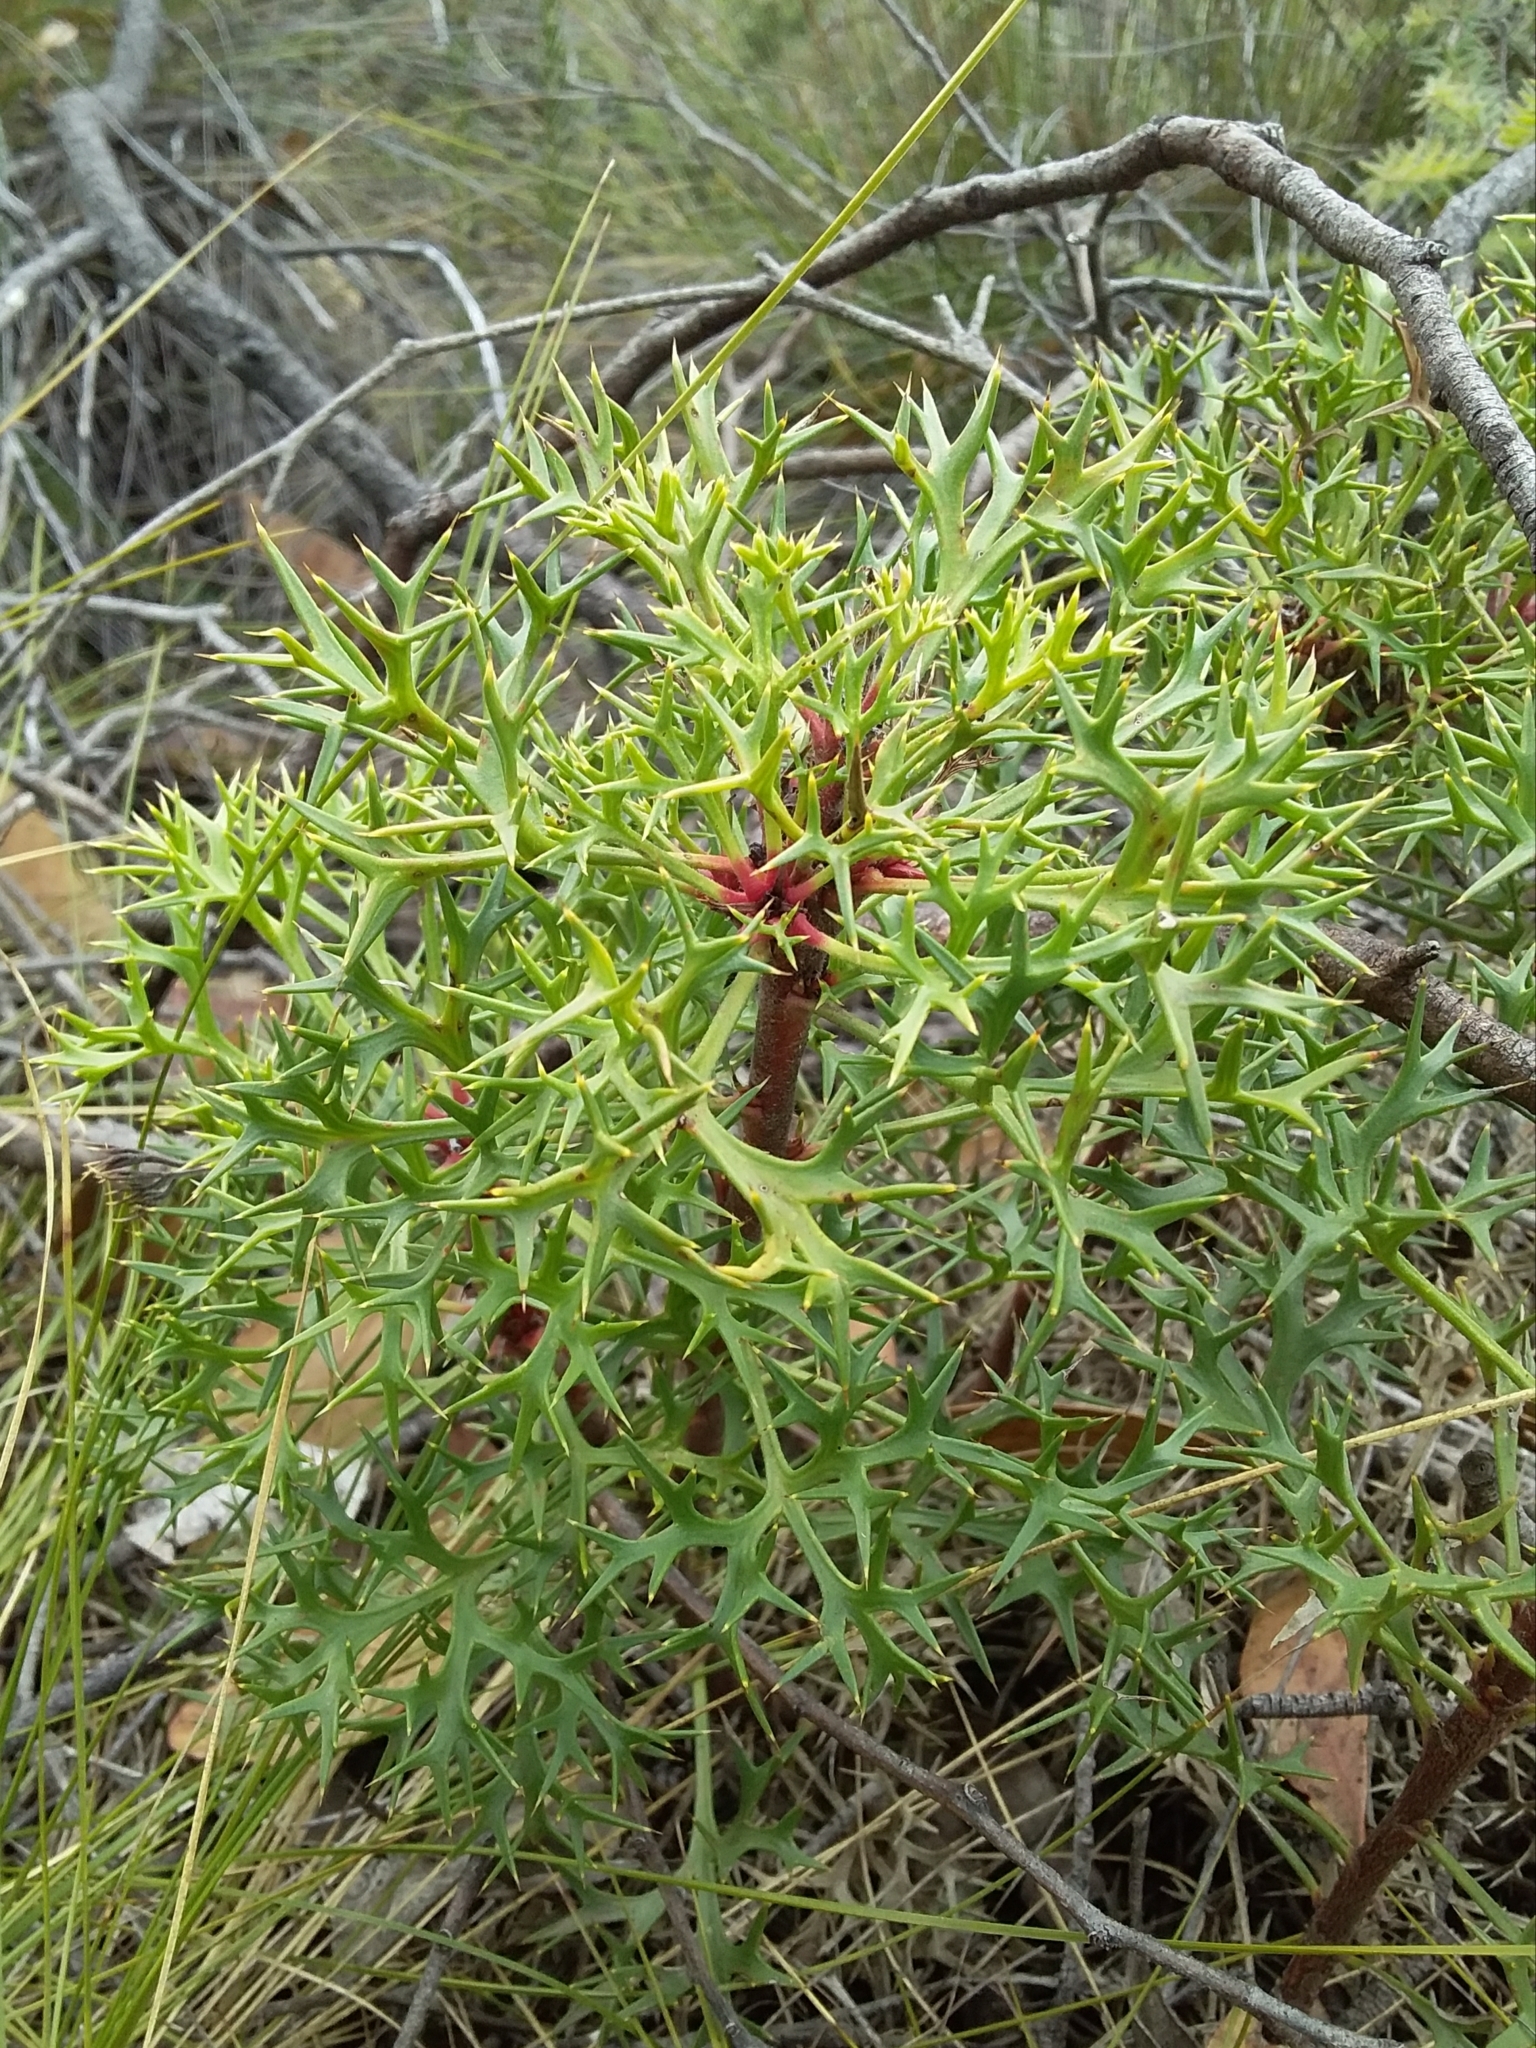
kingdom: Plantae
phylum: Tracheophyta
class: Magnoliopsida
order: Proteales
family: Proteaceae
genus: Isopogon
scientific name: Isopogon ceratophyllus
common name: Horny cone-bush
